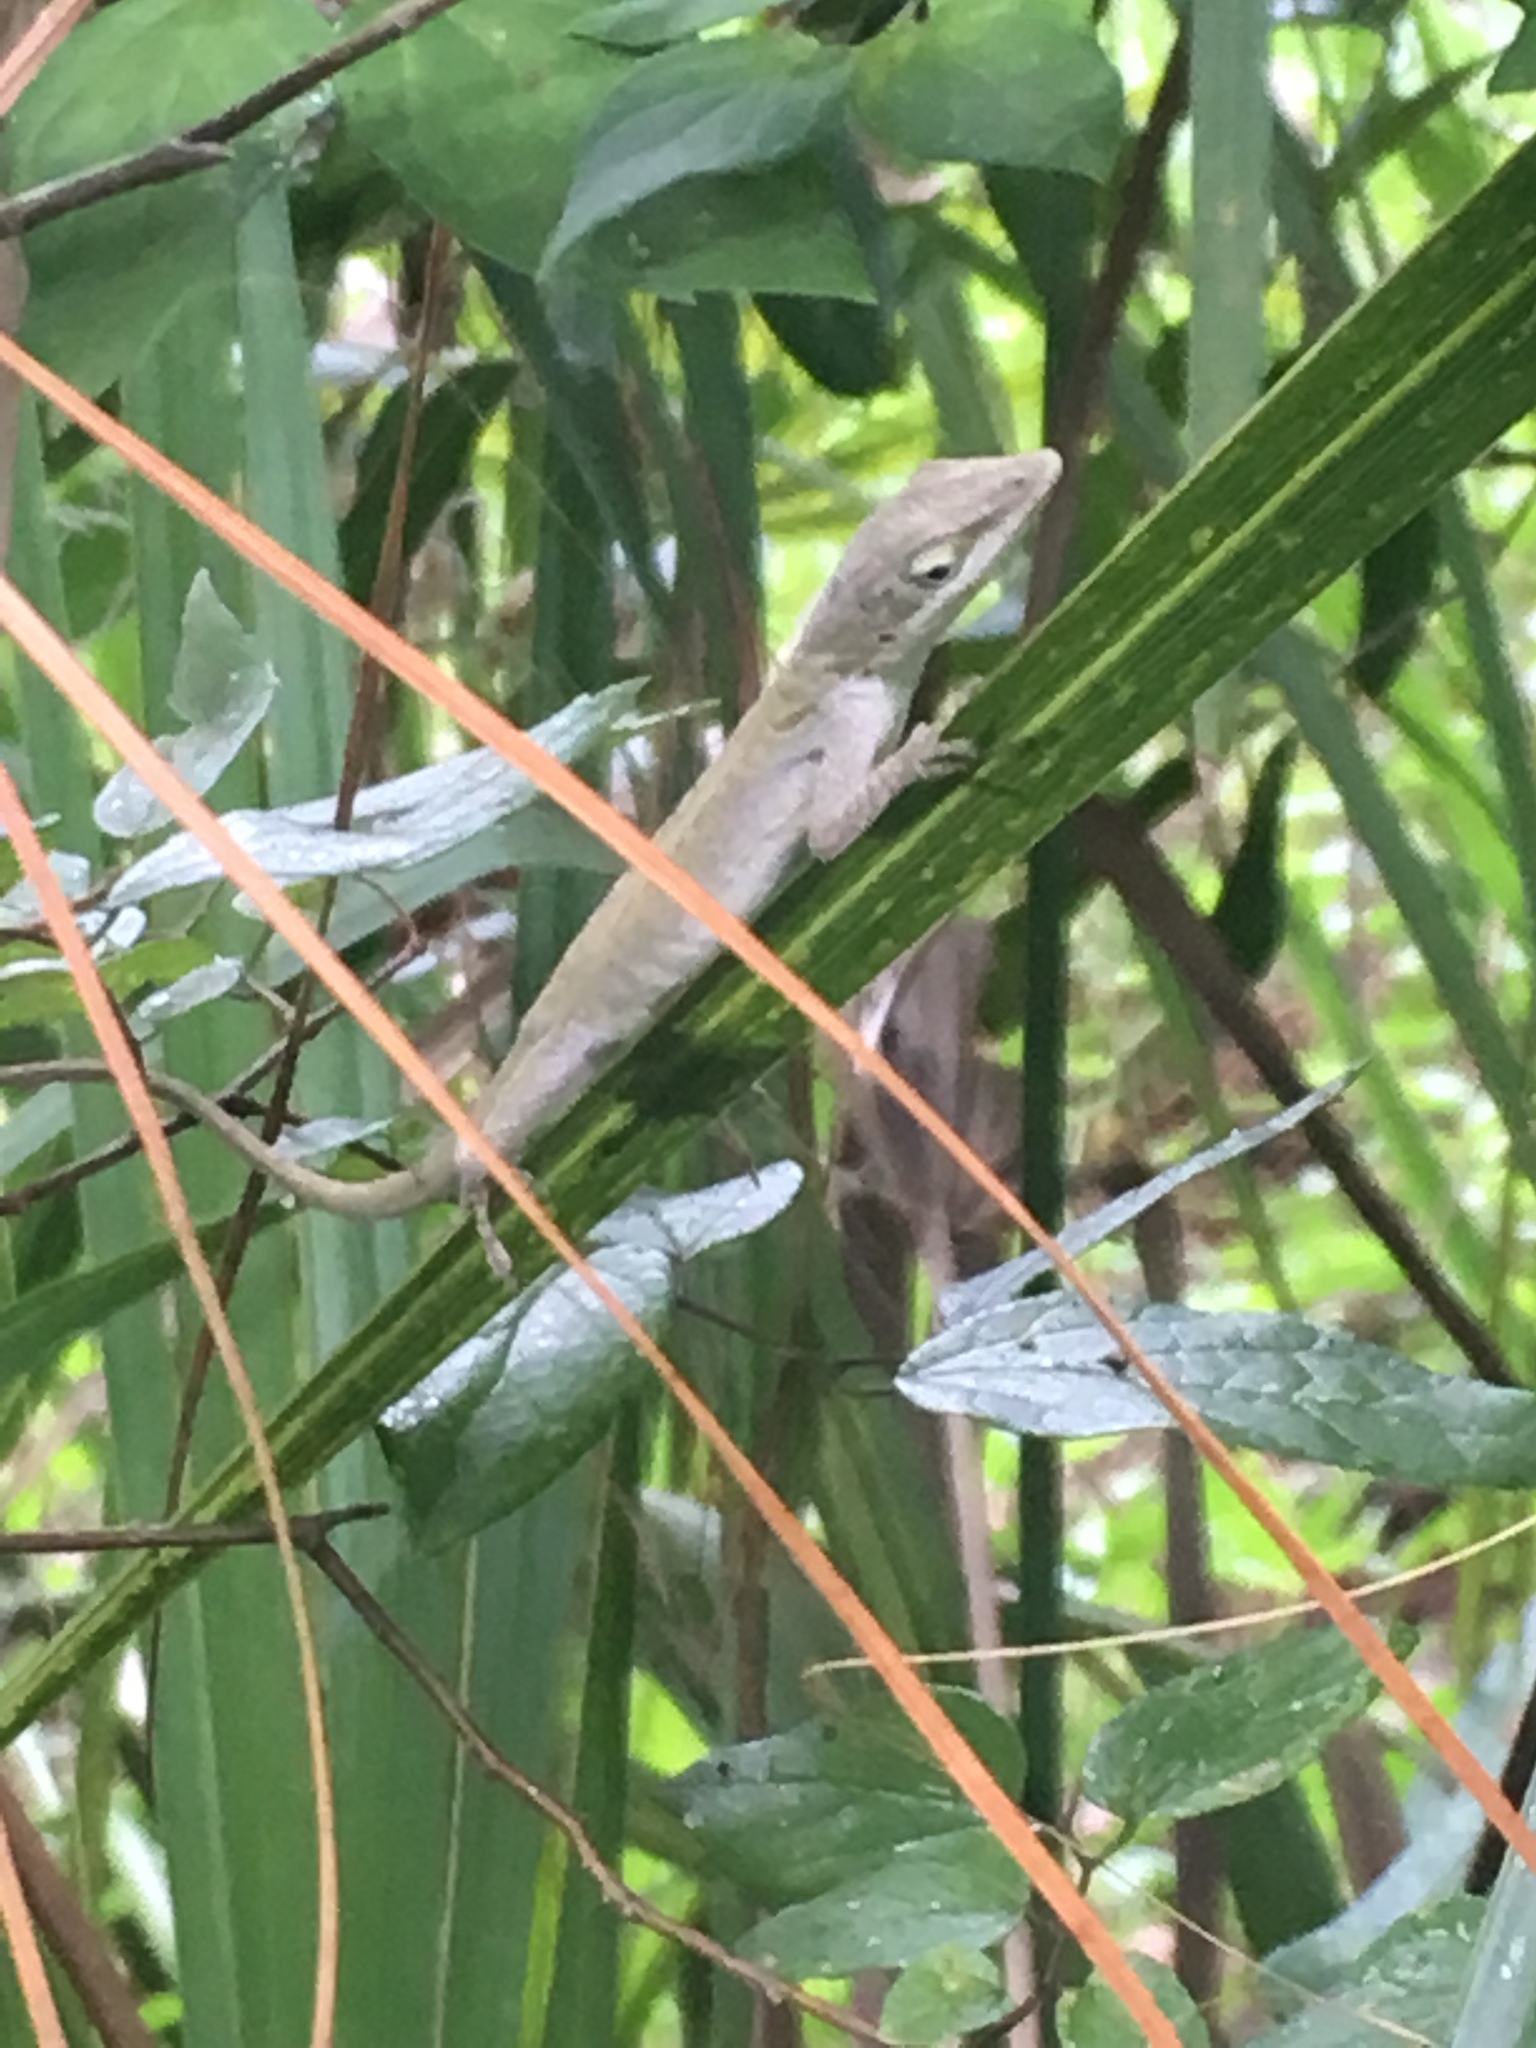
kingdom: Animalia
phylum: Chordata
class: Squamata
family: Dactyloidae
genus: Anolis
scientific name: Anolis carolinensis
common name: Green anole
